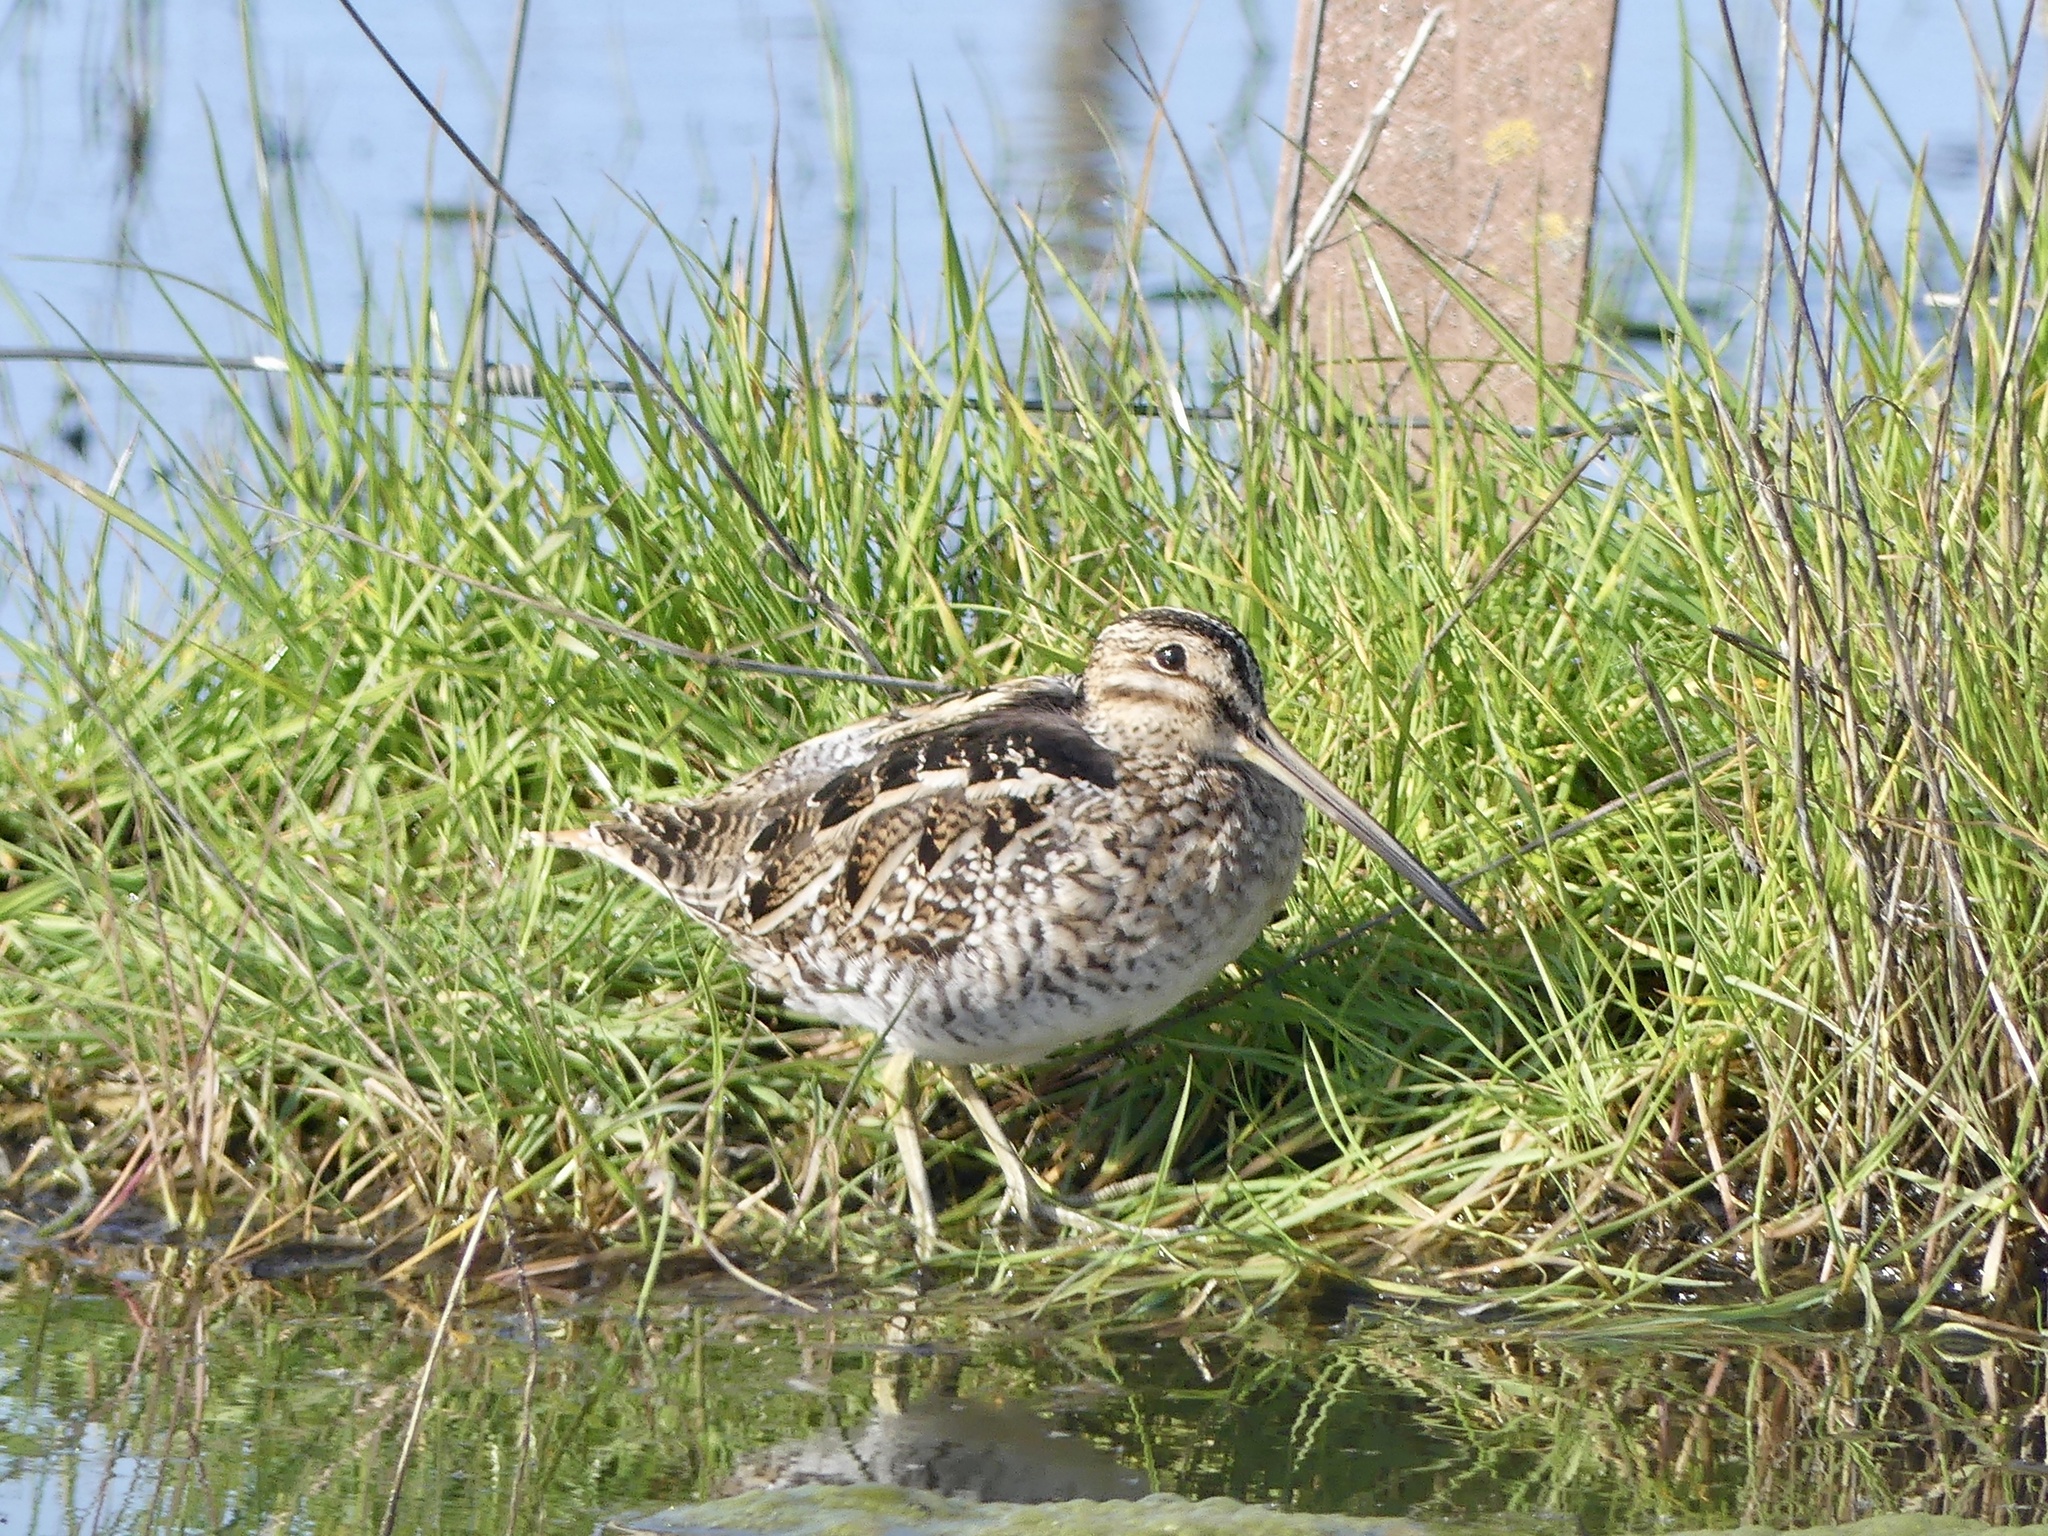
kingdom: Animalia
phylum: Chordata
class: Aves
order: Charadriiformes
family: Scolopacidae
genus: Gallinago
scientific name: Gallinago delicata
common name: Wilson's snipe
